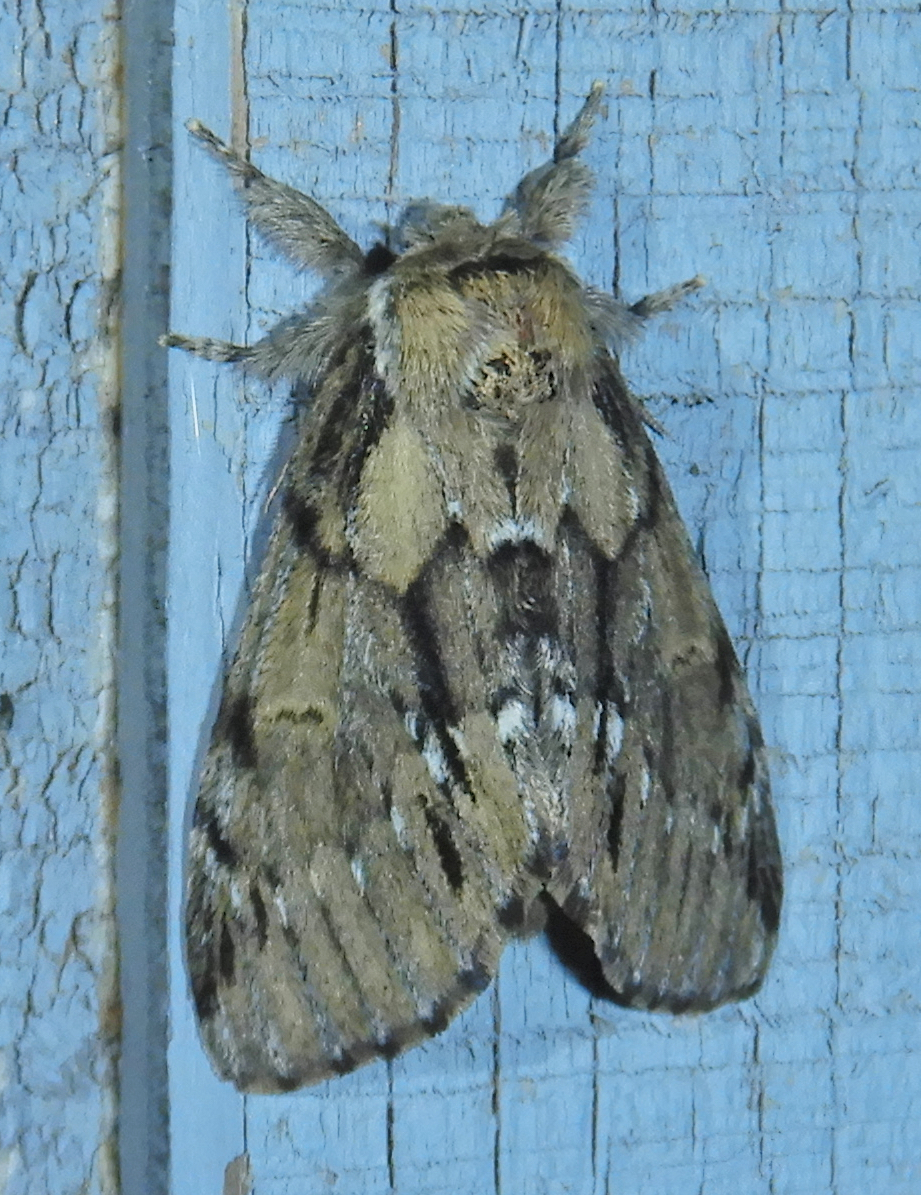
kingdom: Animalia
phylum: Arthropoda
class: Insecta
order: Lepidoptera
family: Notodontidae
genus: Paraeschra
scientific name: Paraeschra georgica
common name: Georgian prominent
